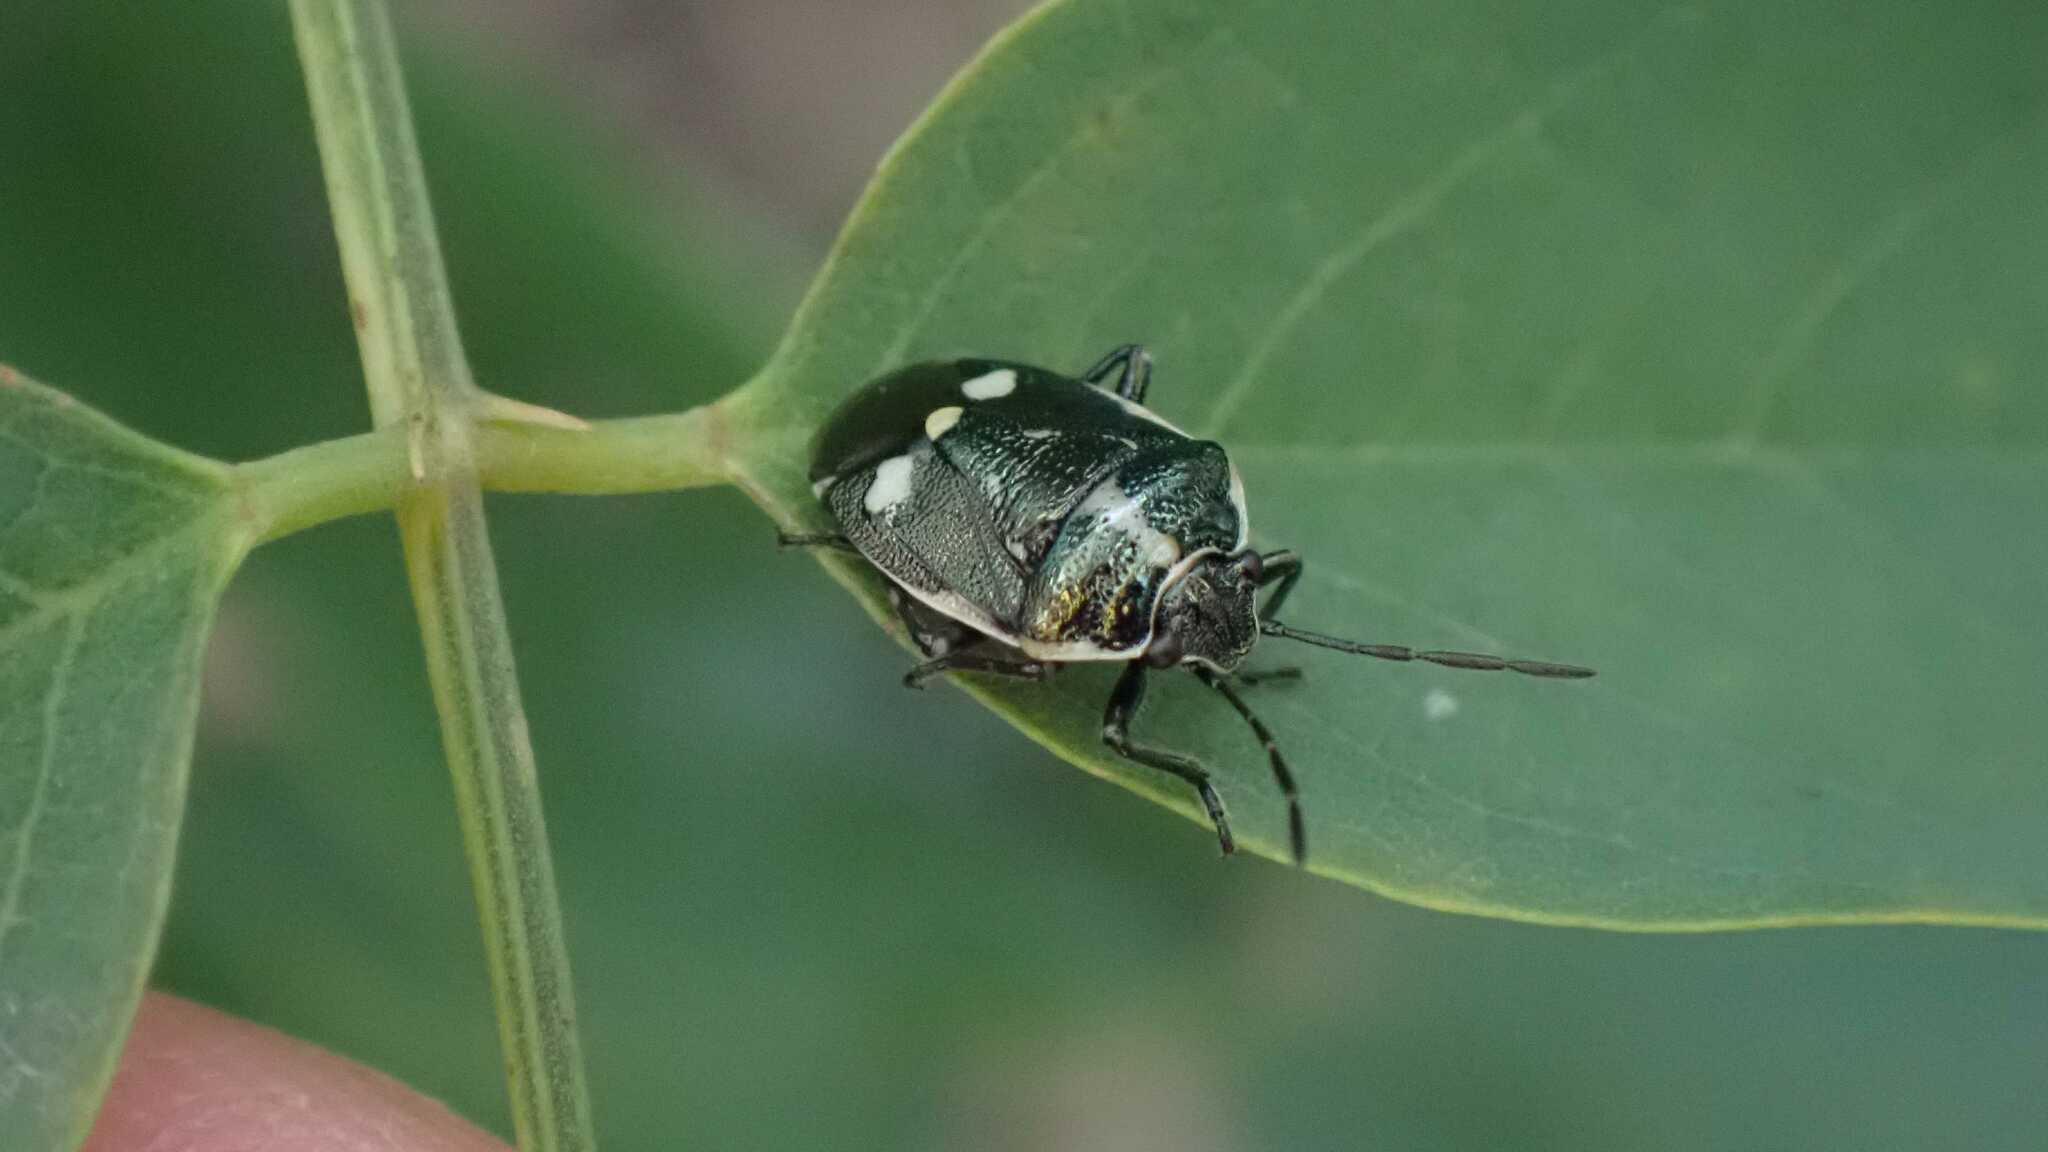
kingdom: Animalia
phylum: Arthropoda
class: Insecta
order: Hemiptera
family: Pentatomidae
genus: Eurydema
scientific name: Eurydema oleracea
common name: Cabbage bug
